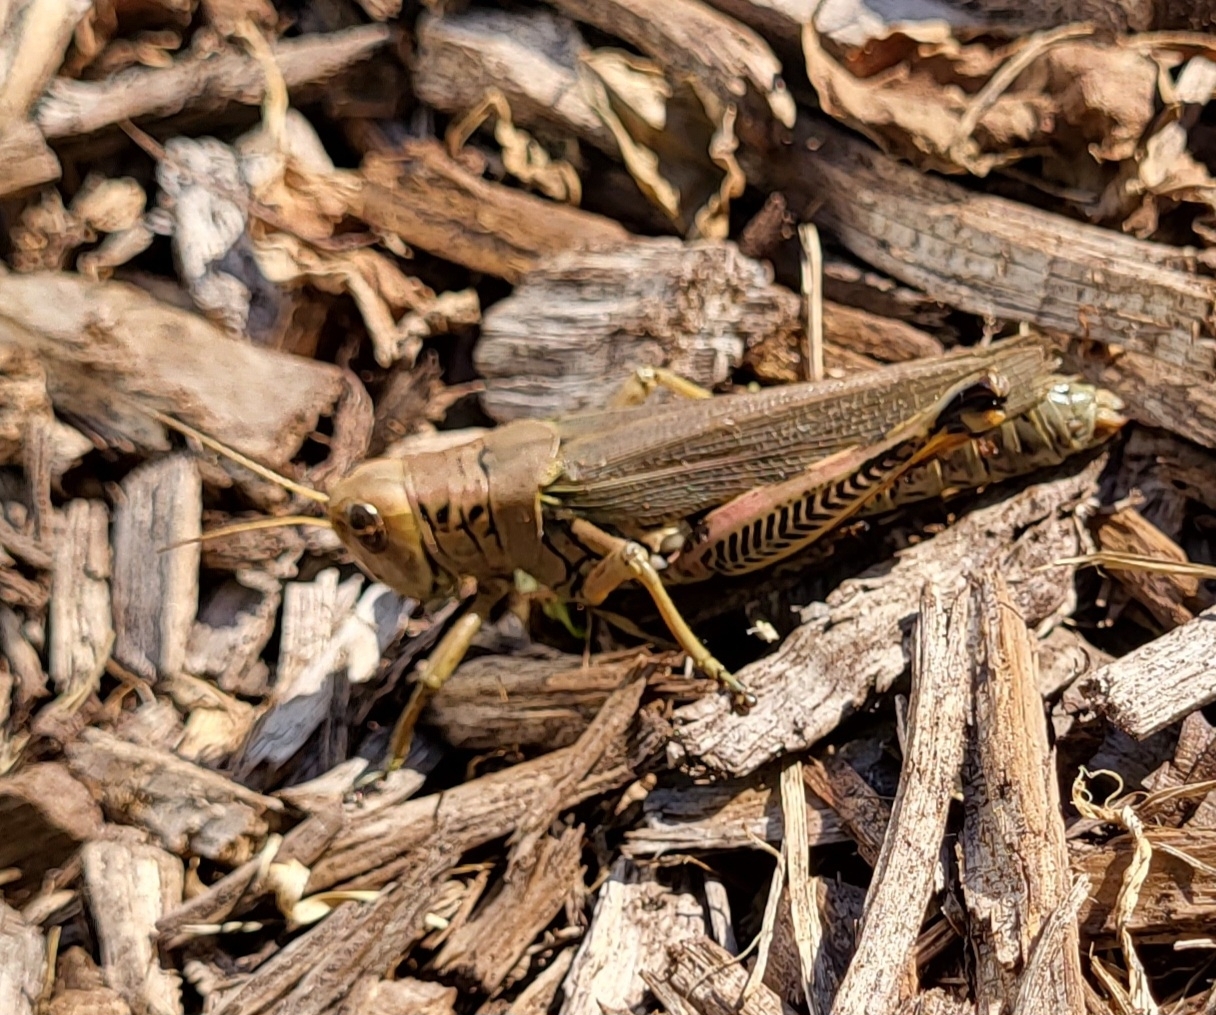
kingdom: Animalia
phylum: Arthropoda
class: Insecta
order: Orthoptera
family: Acrididae
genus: Melanoplus
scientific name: Melanoplus differentialis
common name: Differential grasshopper
